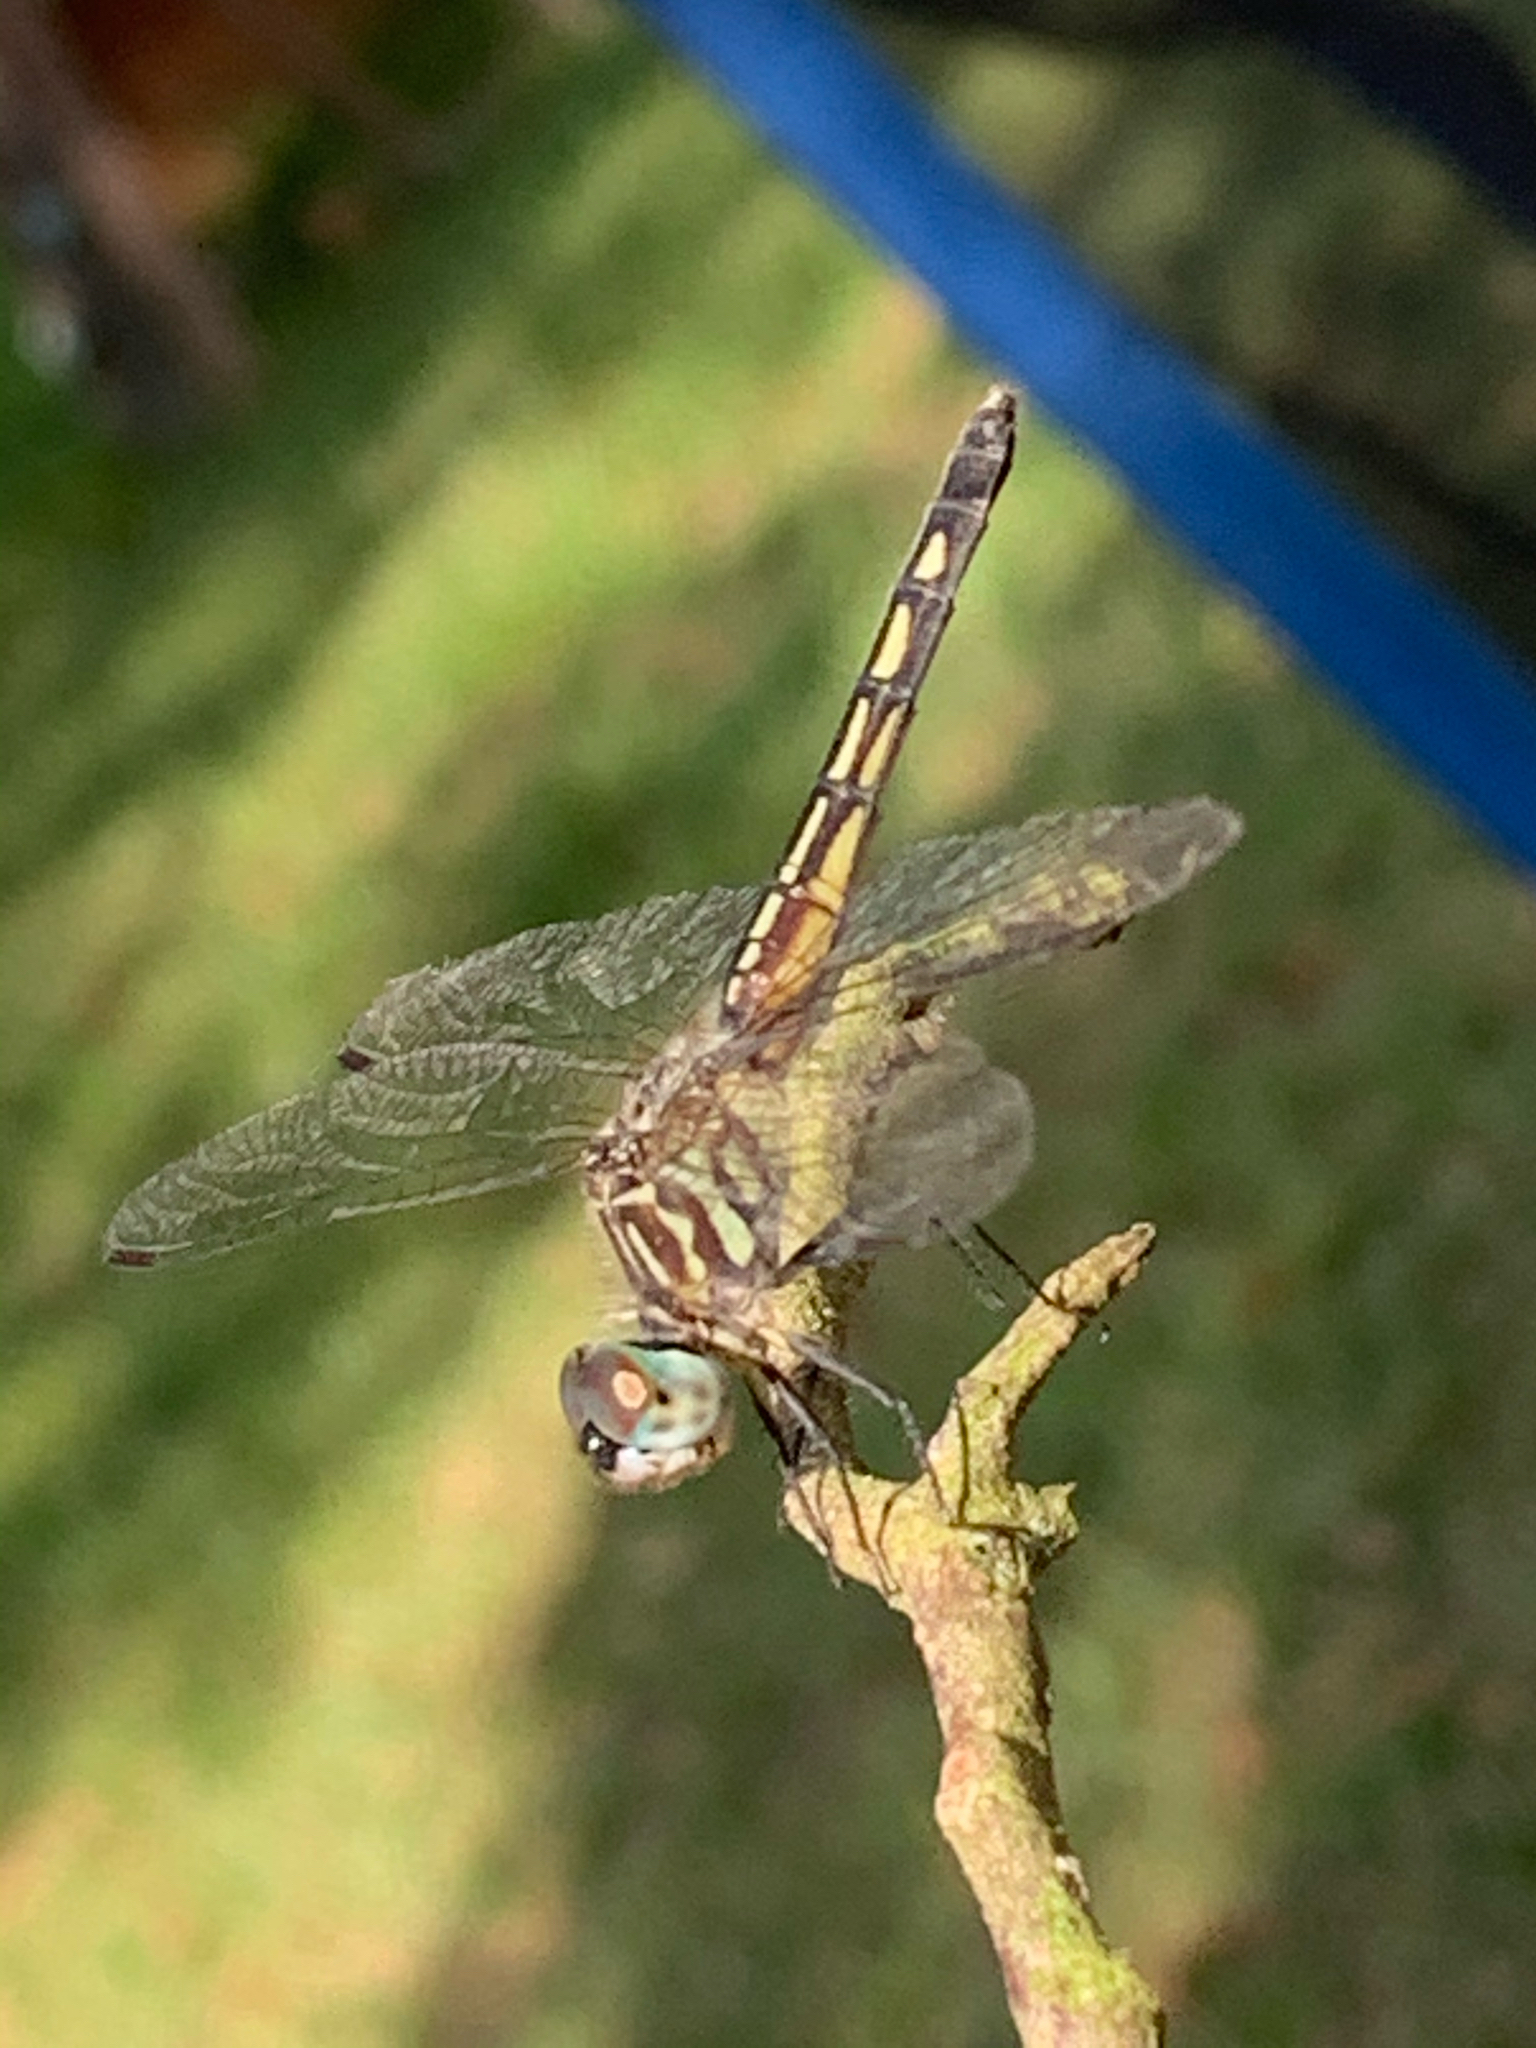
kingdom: Animalia
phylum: Arthropoda
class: Insecta
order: Odonata
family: Libellulidae
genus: Pachydiplax
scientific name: Pachydiplax longipennis
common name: Blue dasher
